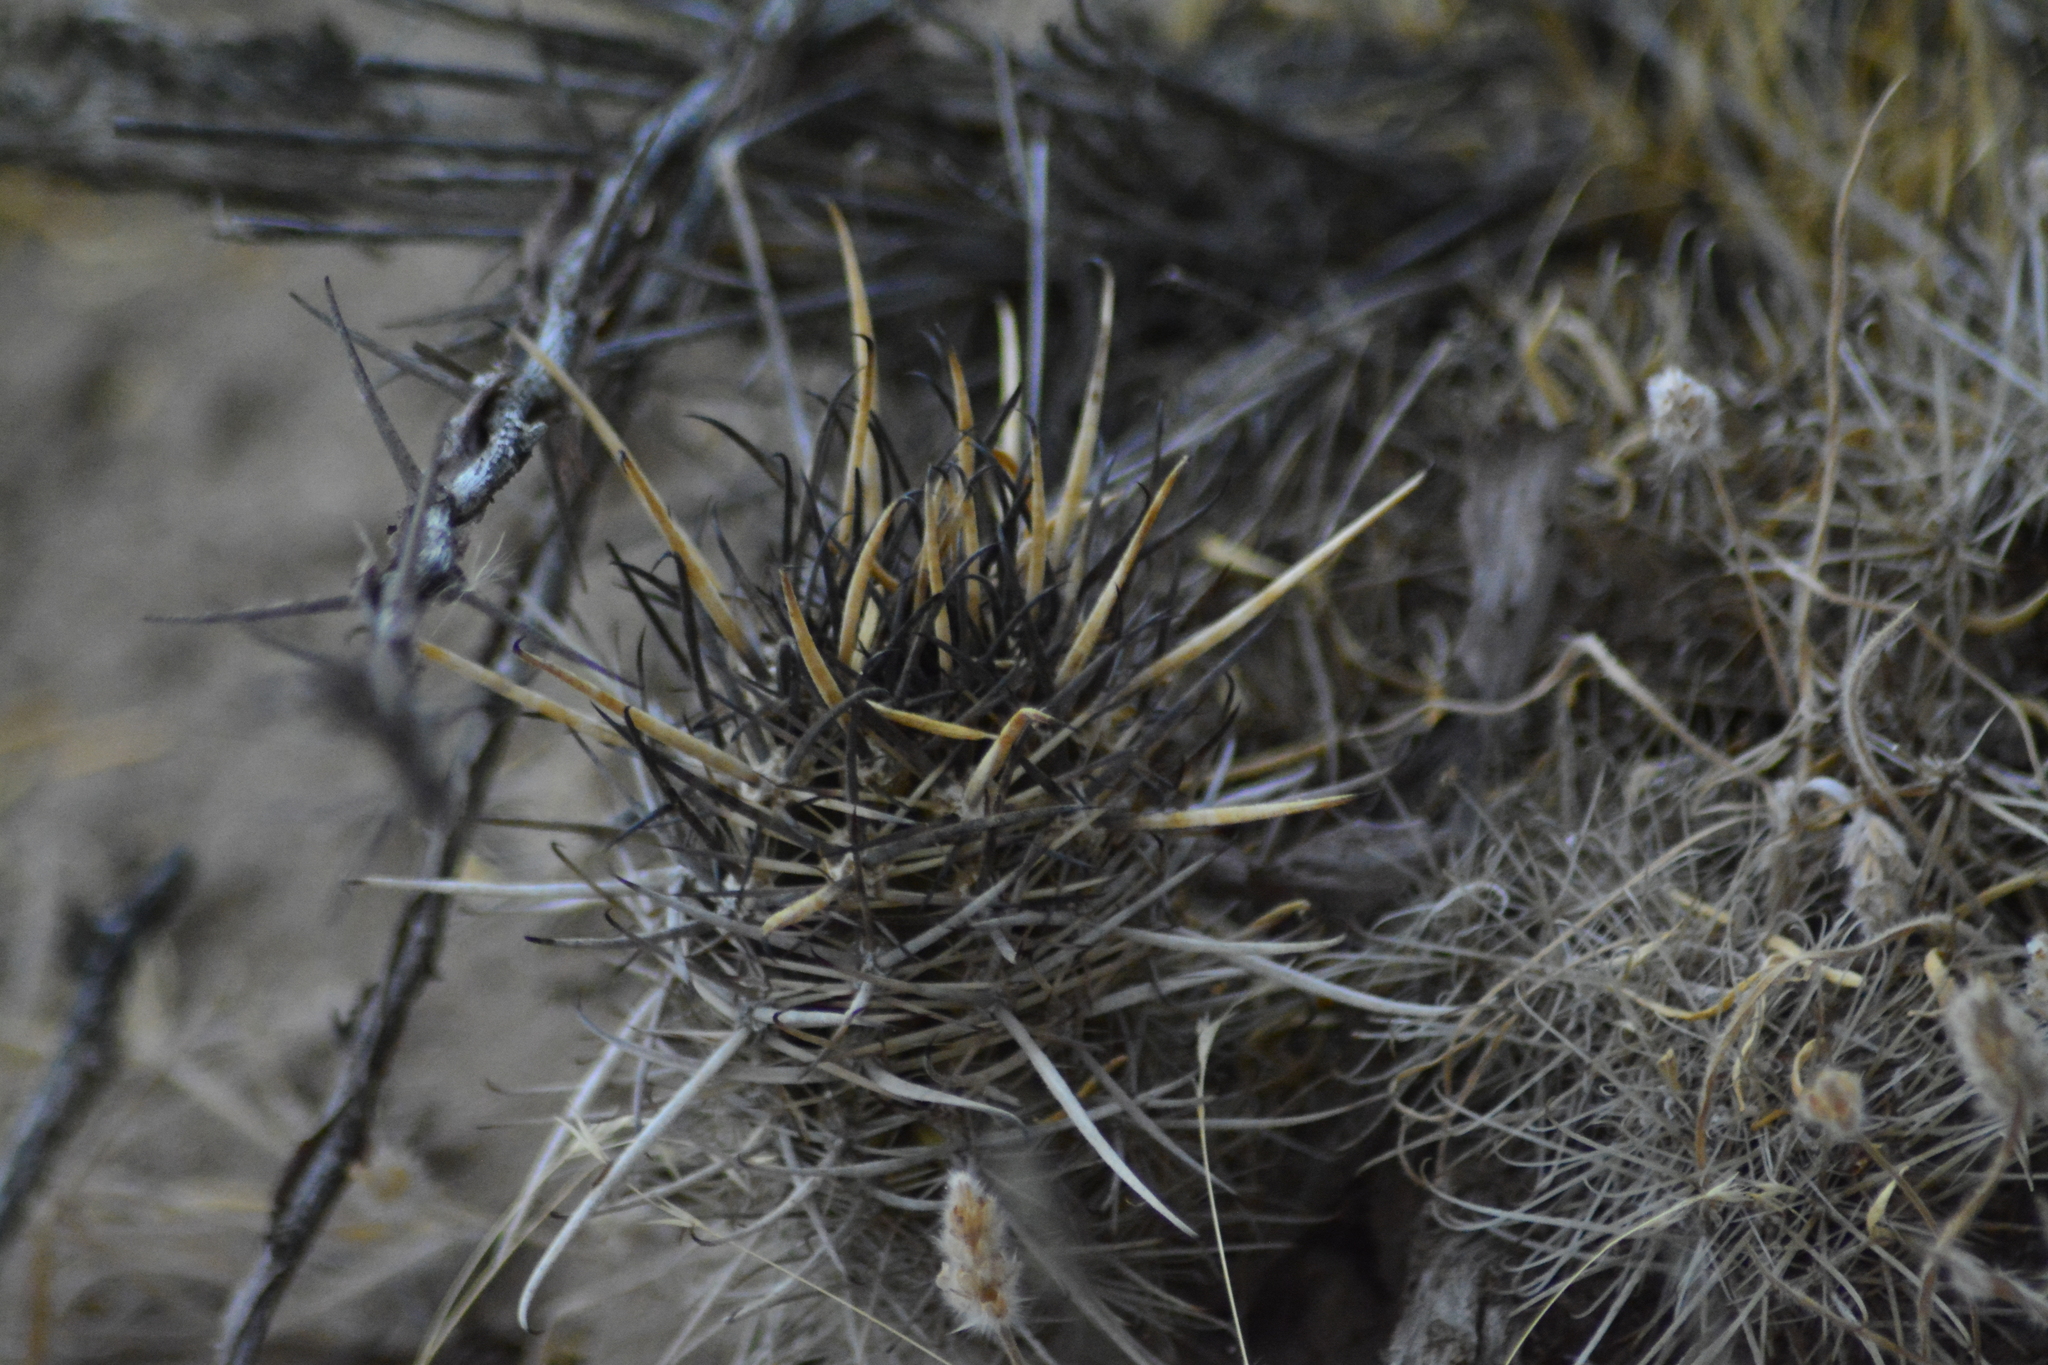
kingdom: Plantae
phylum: Tracheophyta
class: Magnoliopsida
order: Caryophyllales
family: Cactaceae
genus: Austrocactus
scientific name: Austrocactus bertinii
